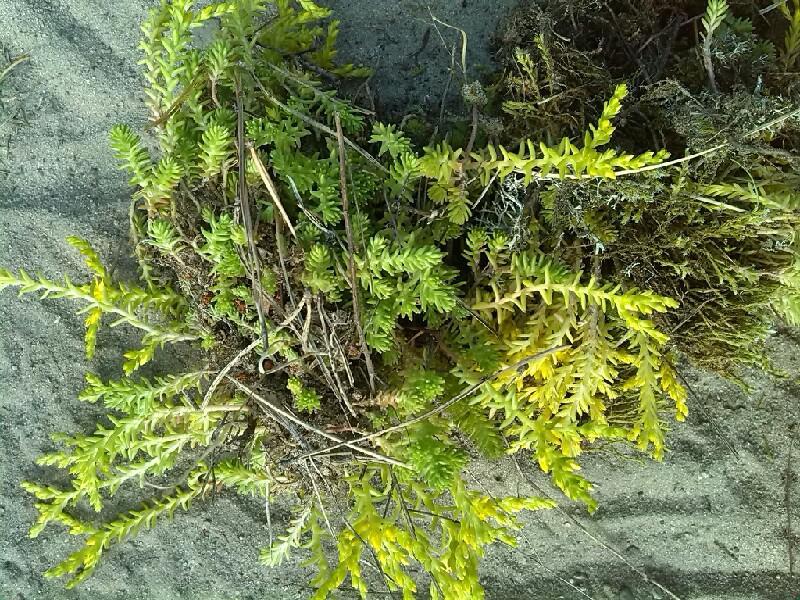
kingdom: Plantae
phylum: Tracheophyta
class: Magnoliopsida
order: Saxifragales
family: Crassulaceae
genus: Sedum
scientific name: Sedum sexangulare
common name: Tasteless stonecrop
